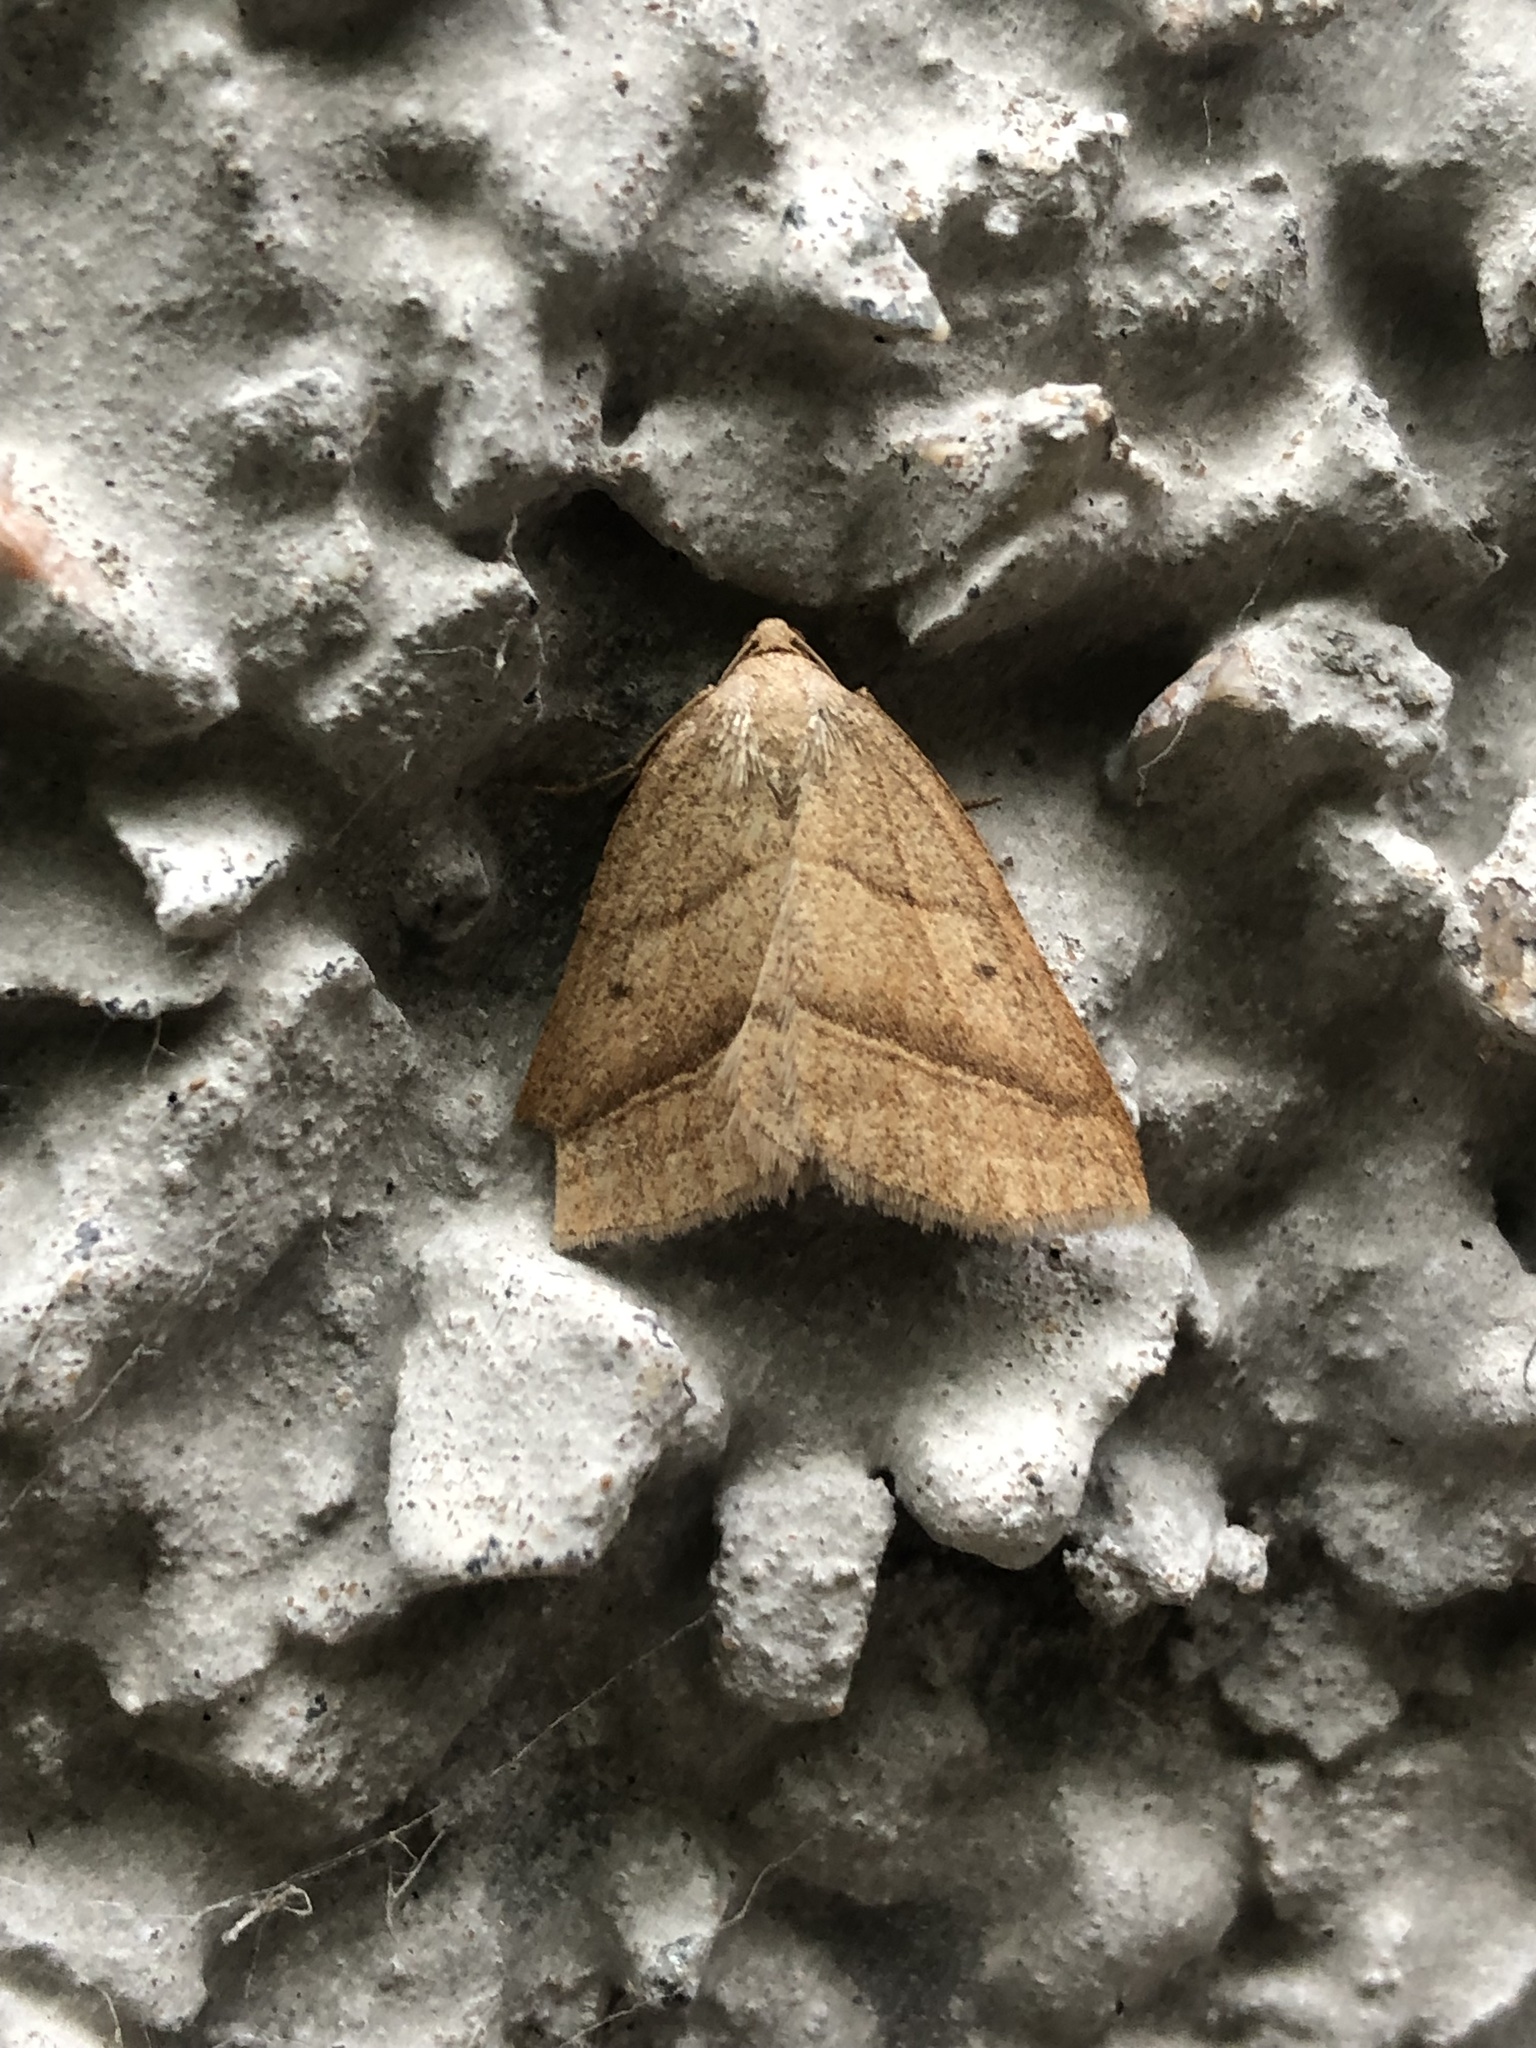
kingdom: Animalia
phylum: Arthropoda
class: Insecta
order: Lepidoptera
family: Pterophoridae
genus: Pterophorus
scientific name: Pterophorus Petrophora chlorosata
